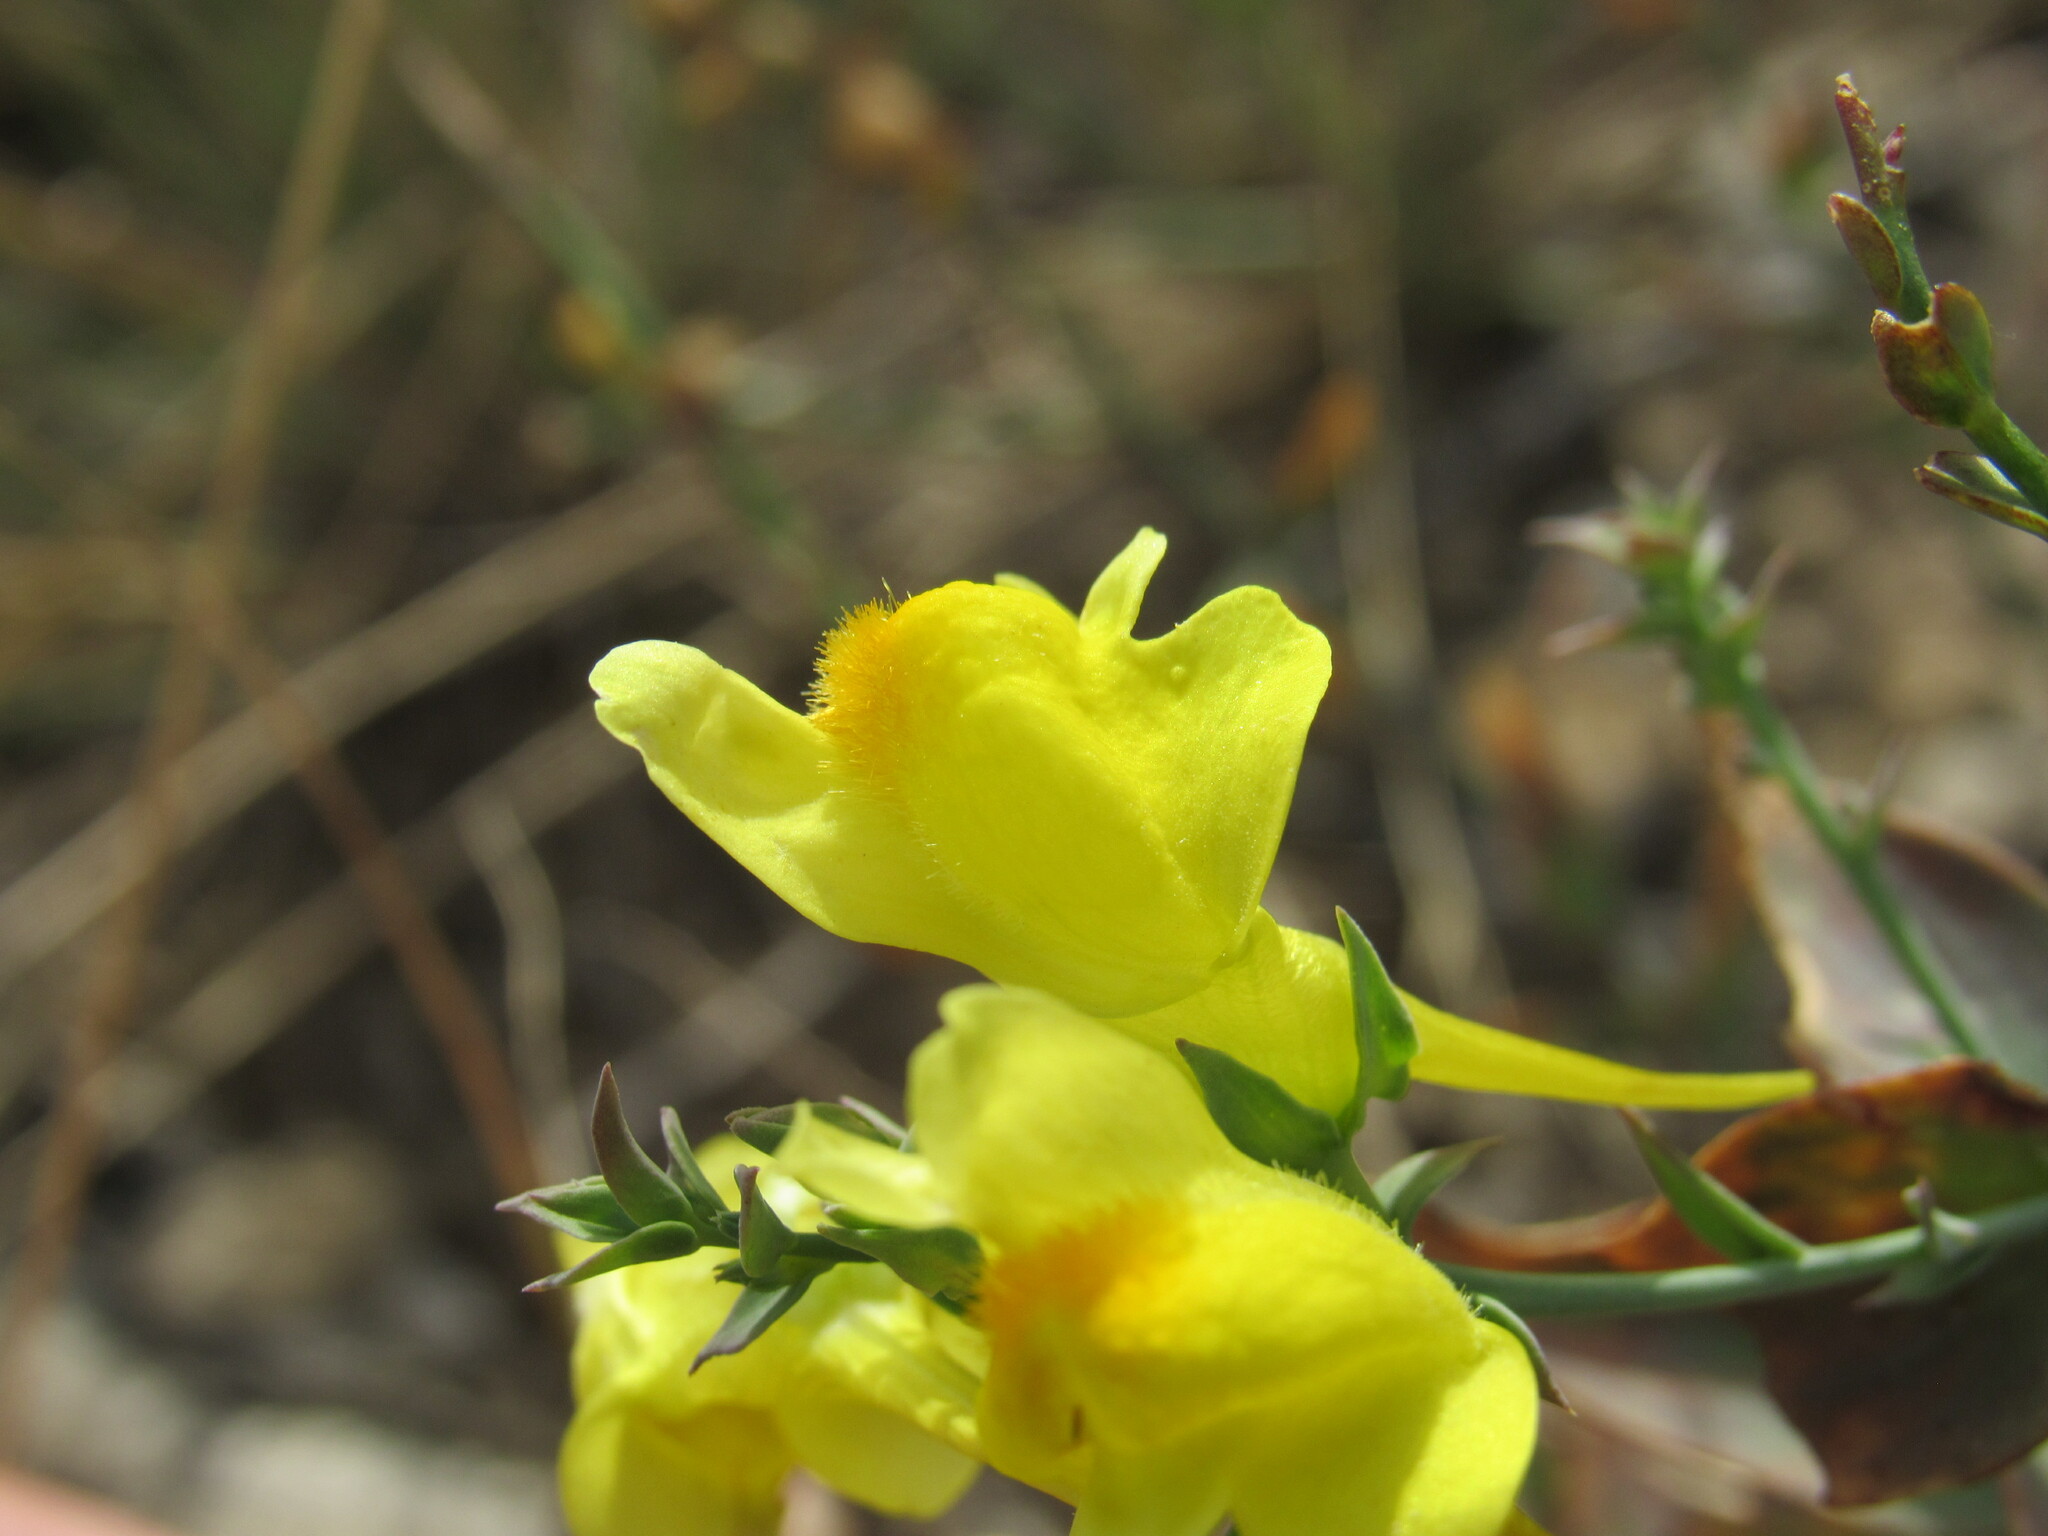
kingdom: Plantae
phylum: Tracheophyta
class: Magnoliopsida
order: Lamiales
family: Plantaginaceae
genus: Linaria
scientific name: Linaria dalmatica
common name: Dalmatian toadflax
